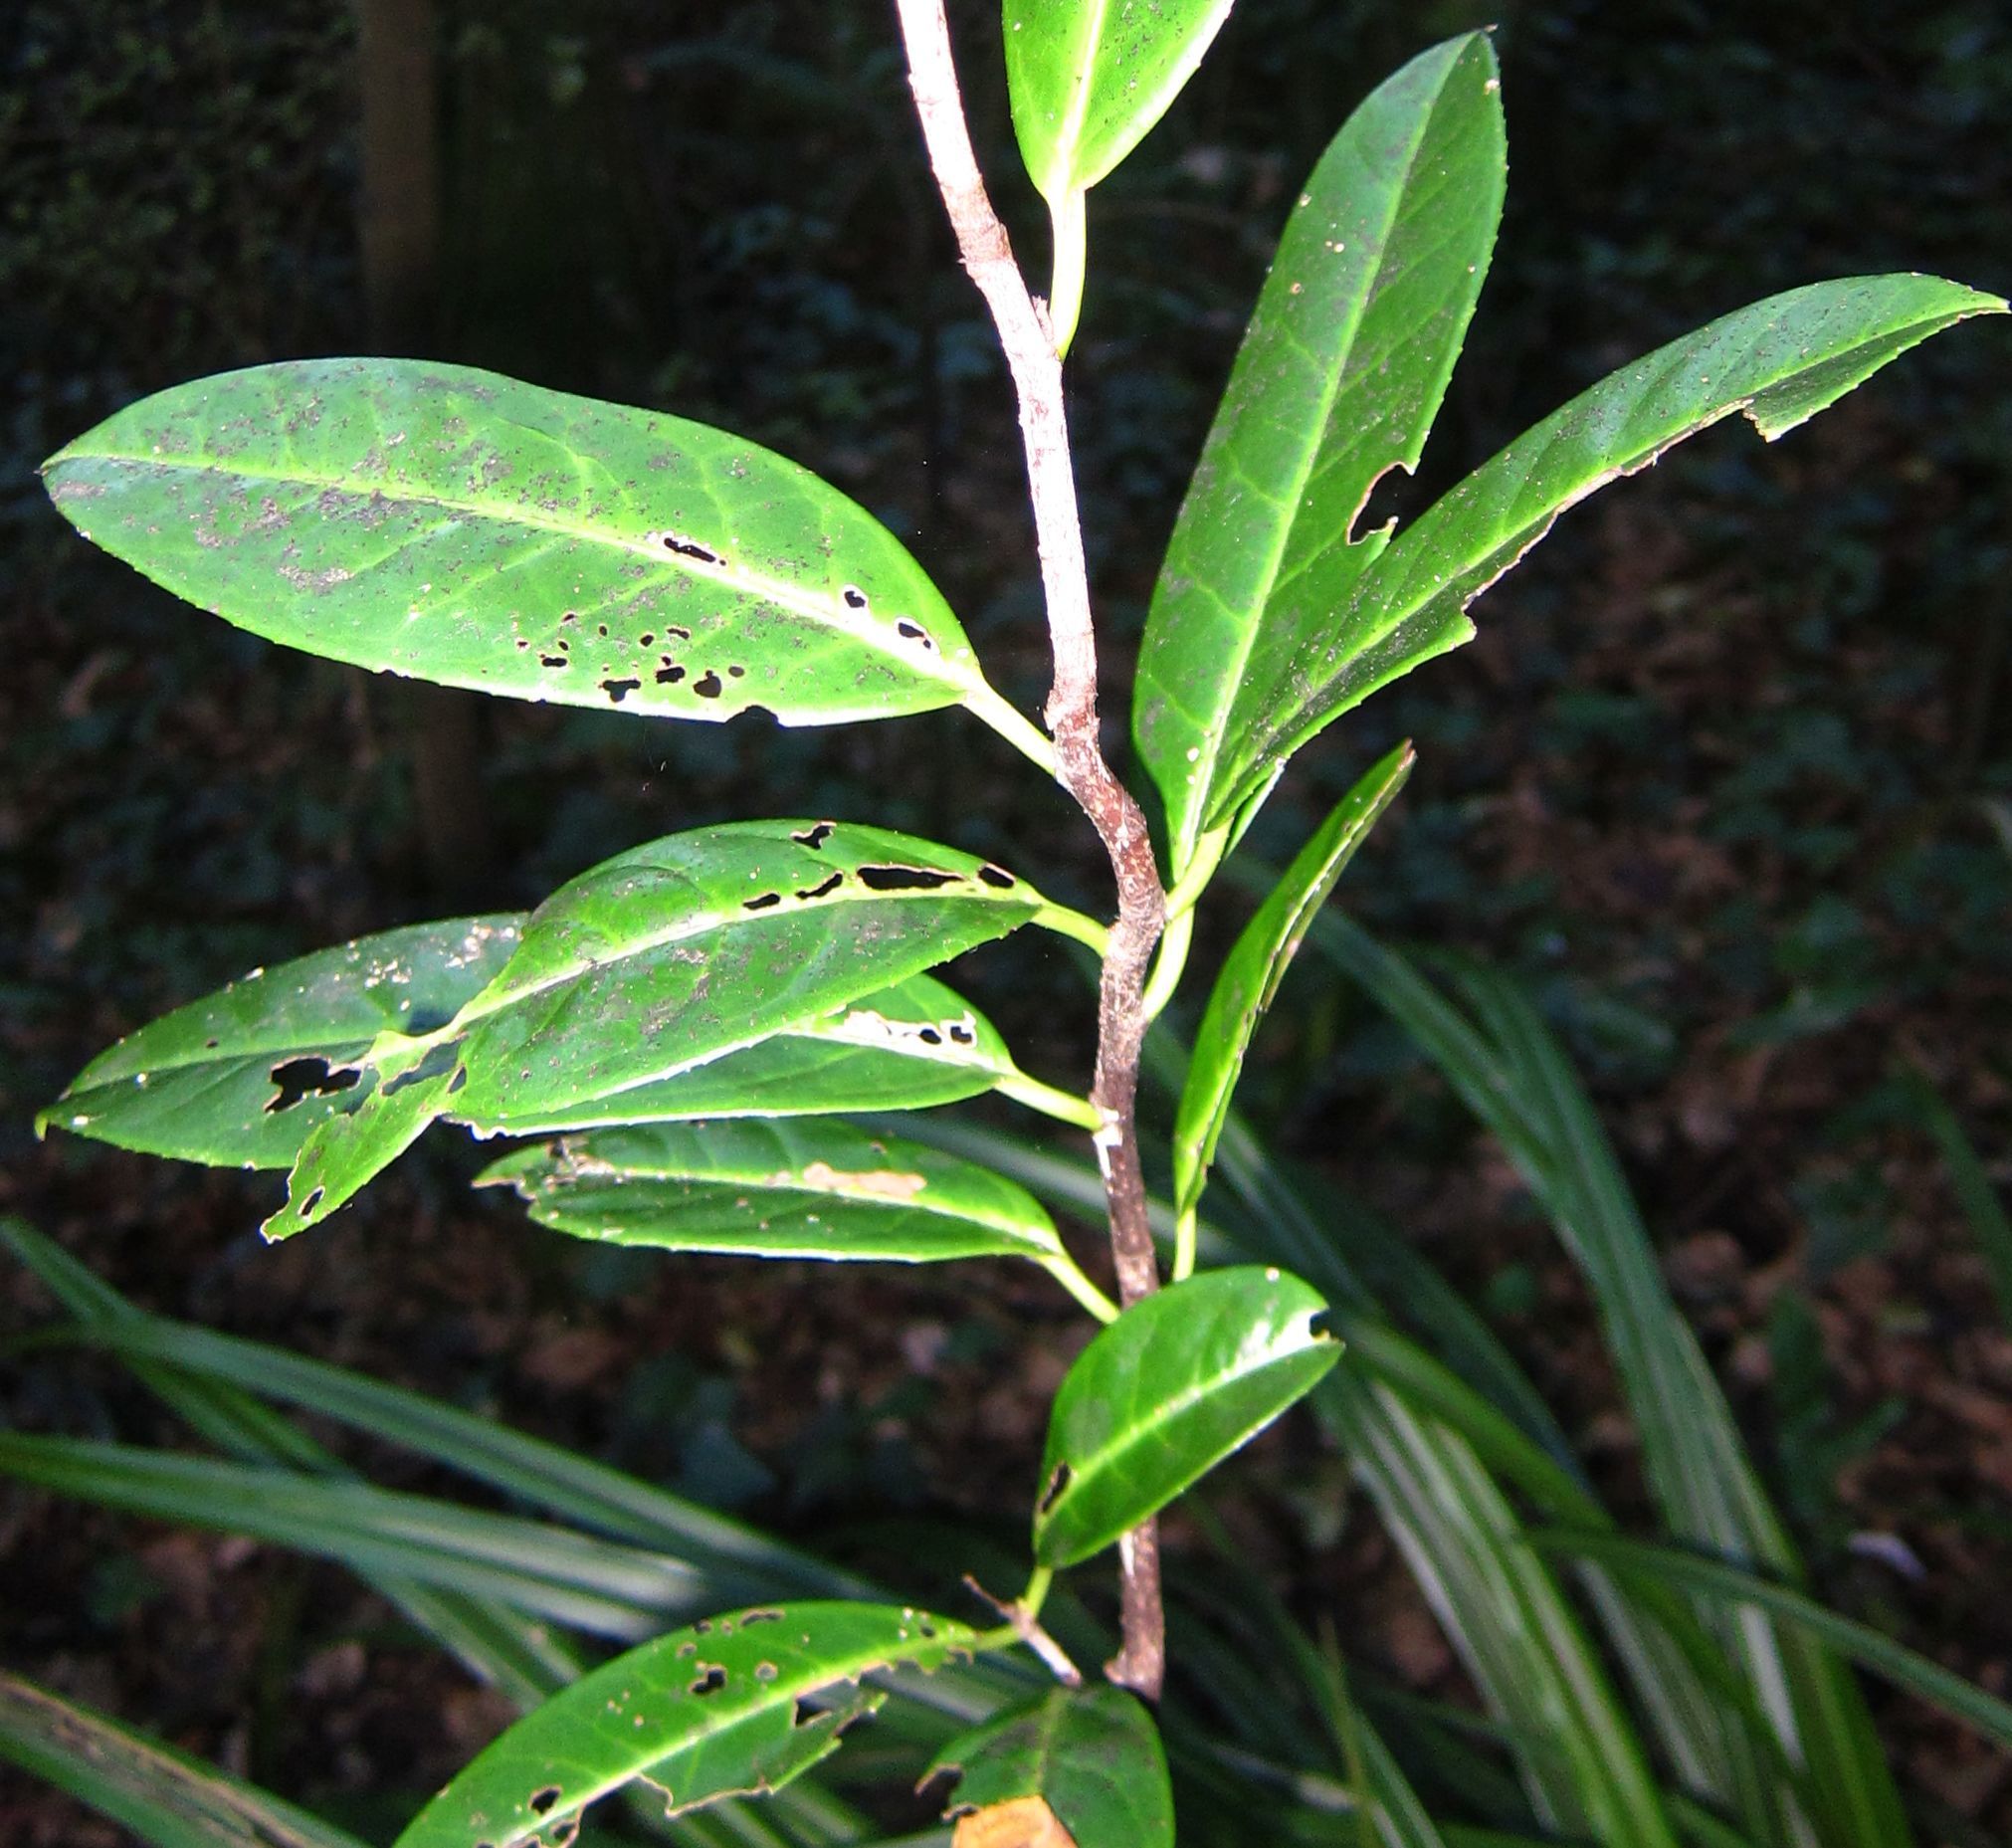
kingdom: Plantae
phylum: Tracheophyta
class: Magnoliopsida
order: Rosales
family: Rosaceae
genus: Prunus
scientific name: Prunus laurocerasus
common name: Cherry laurel
